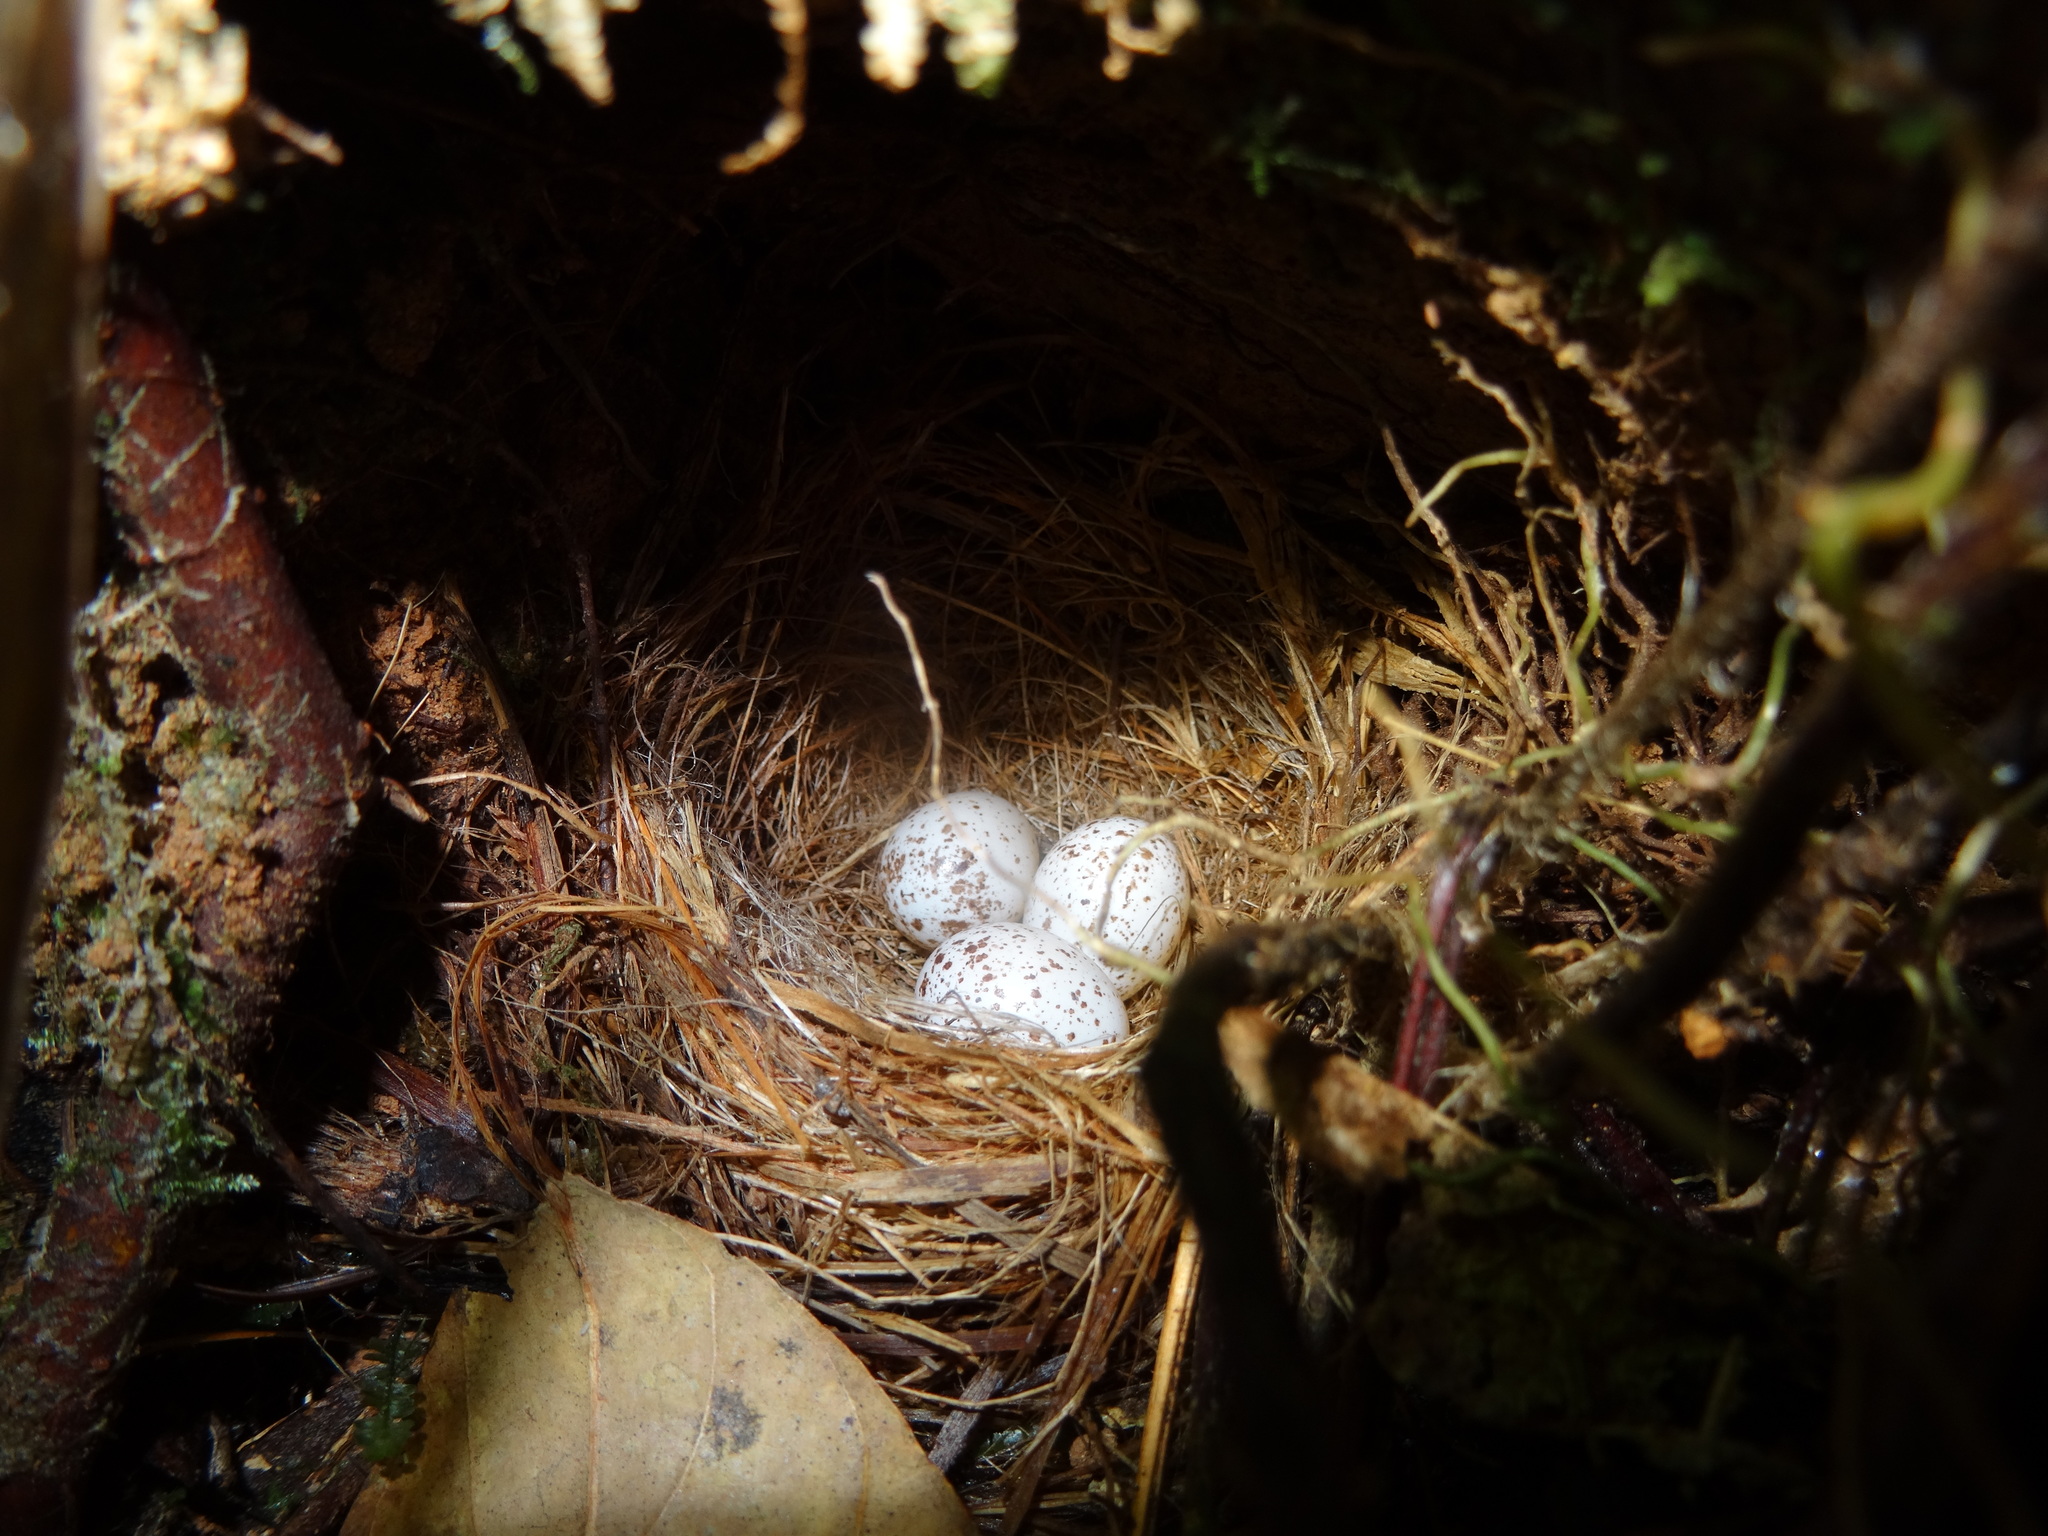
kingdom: Animalia
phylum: Chordata
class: Aves
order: Passeriformes
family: Zosteropidae
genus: Staphida
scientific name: Staphida everetti
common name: Chestnut-crested yuhina
